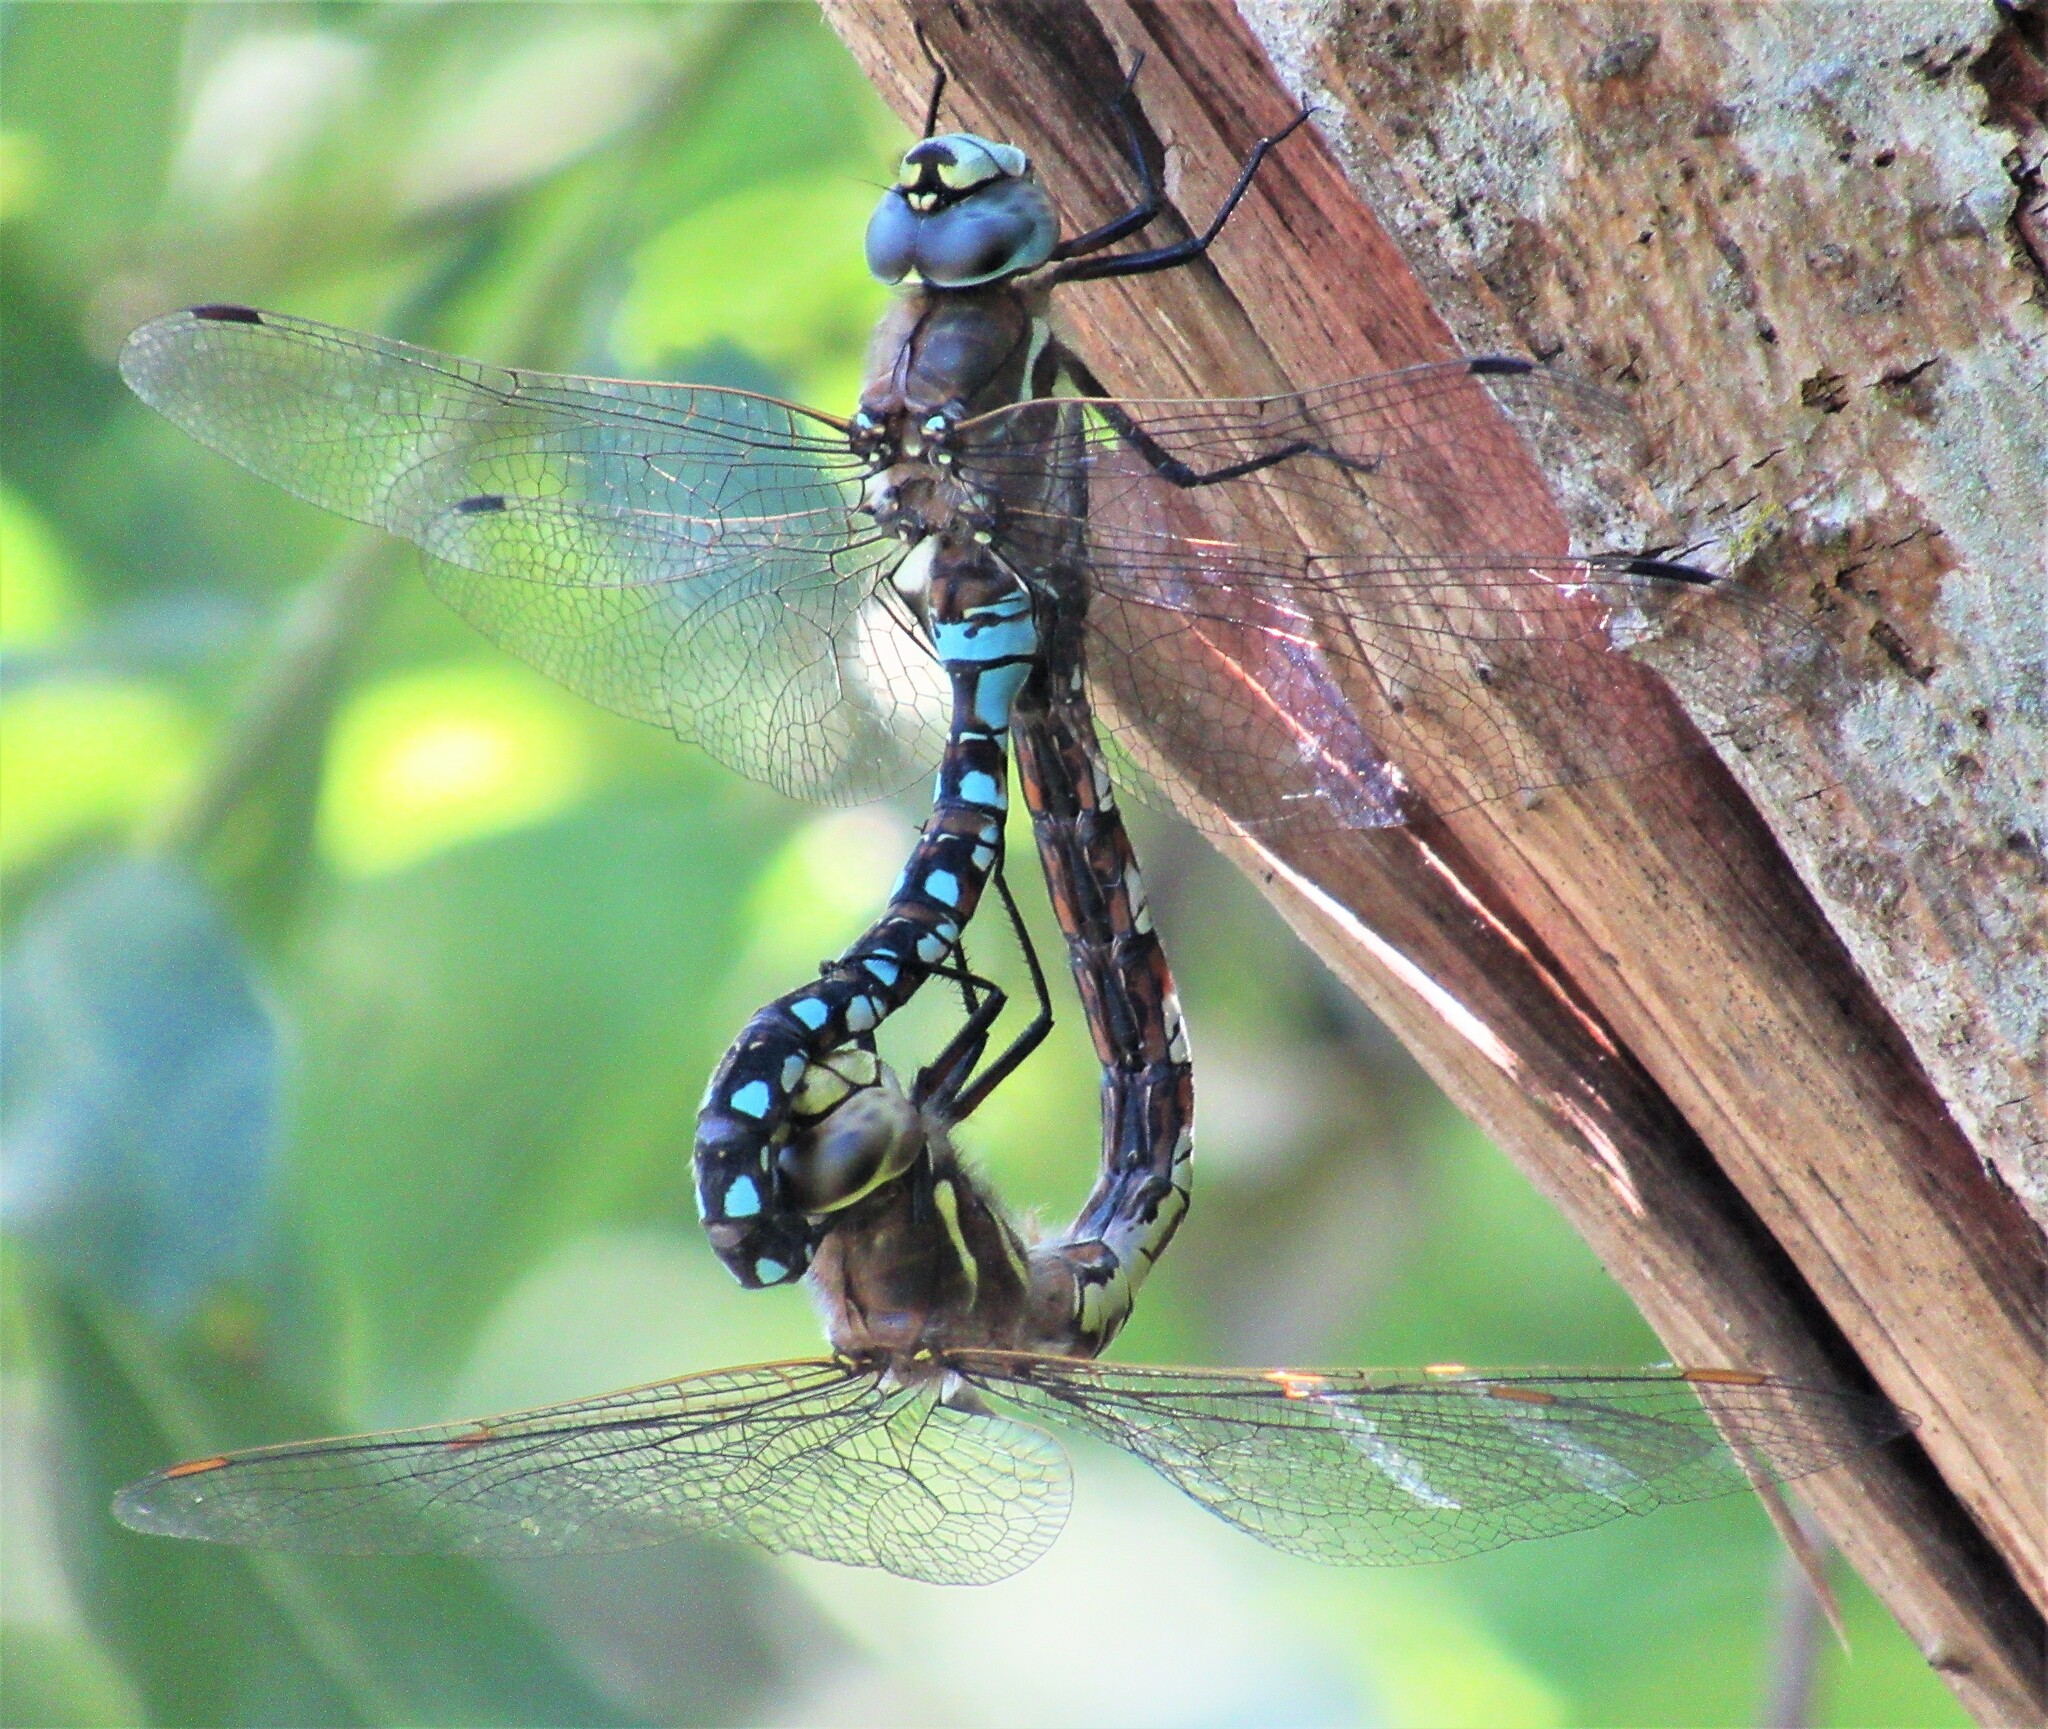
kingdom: Animalia
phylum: Arthropoda
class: Insecta
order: Odonata
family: Aeshnidae
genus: Rhionaeschna
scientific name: Rhionaeschna californica
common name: California darner
